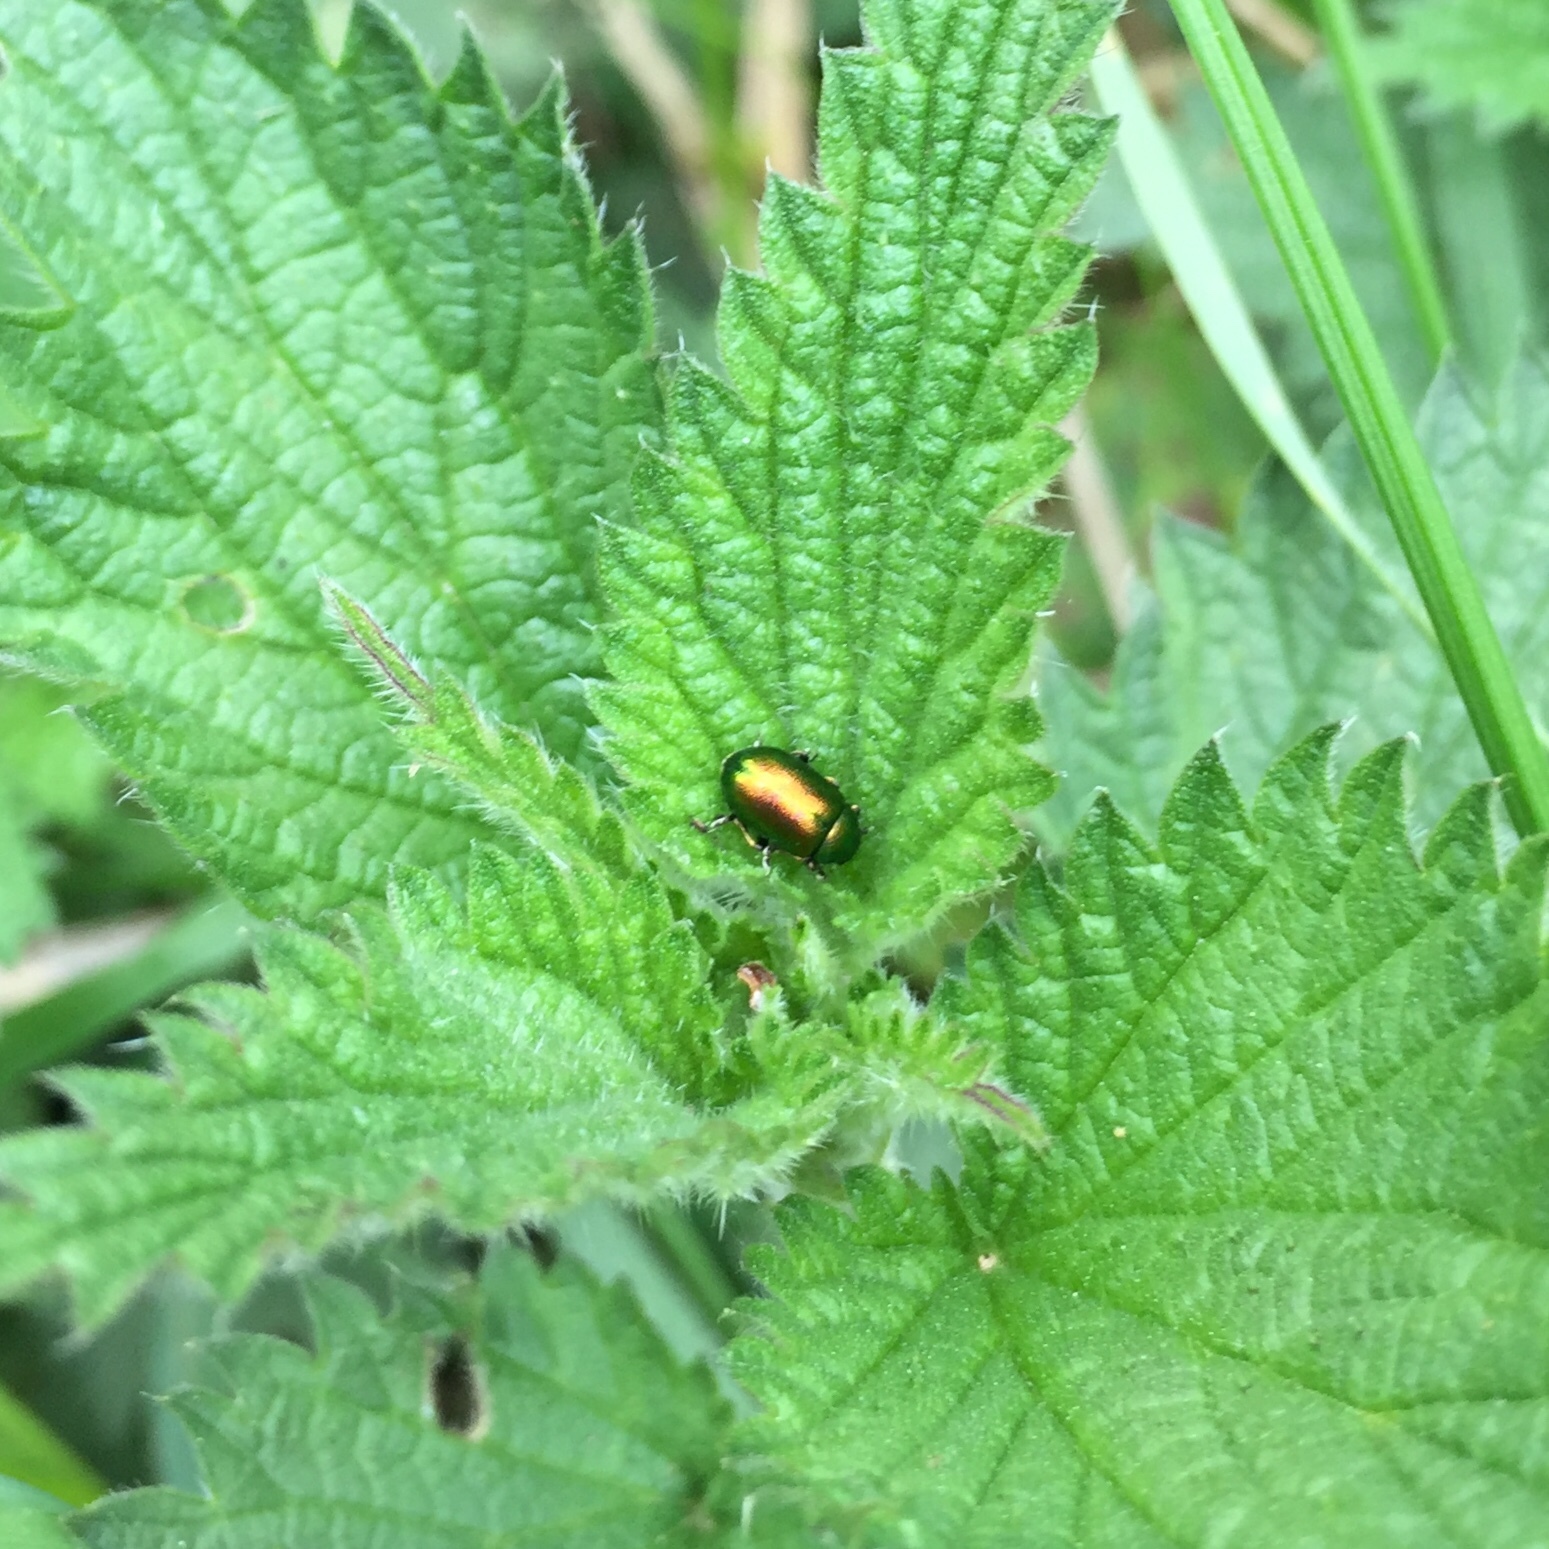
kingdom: Animalia
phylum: Arthropoda
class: Insecta
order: Coleoptera
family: Chrysomelidae
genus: Gastrophysa
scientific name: Gastrophysa viridula
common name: Green dock beetle
